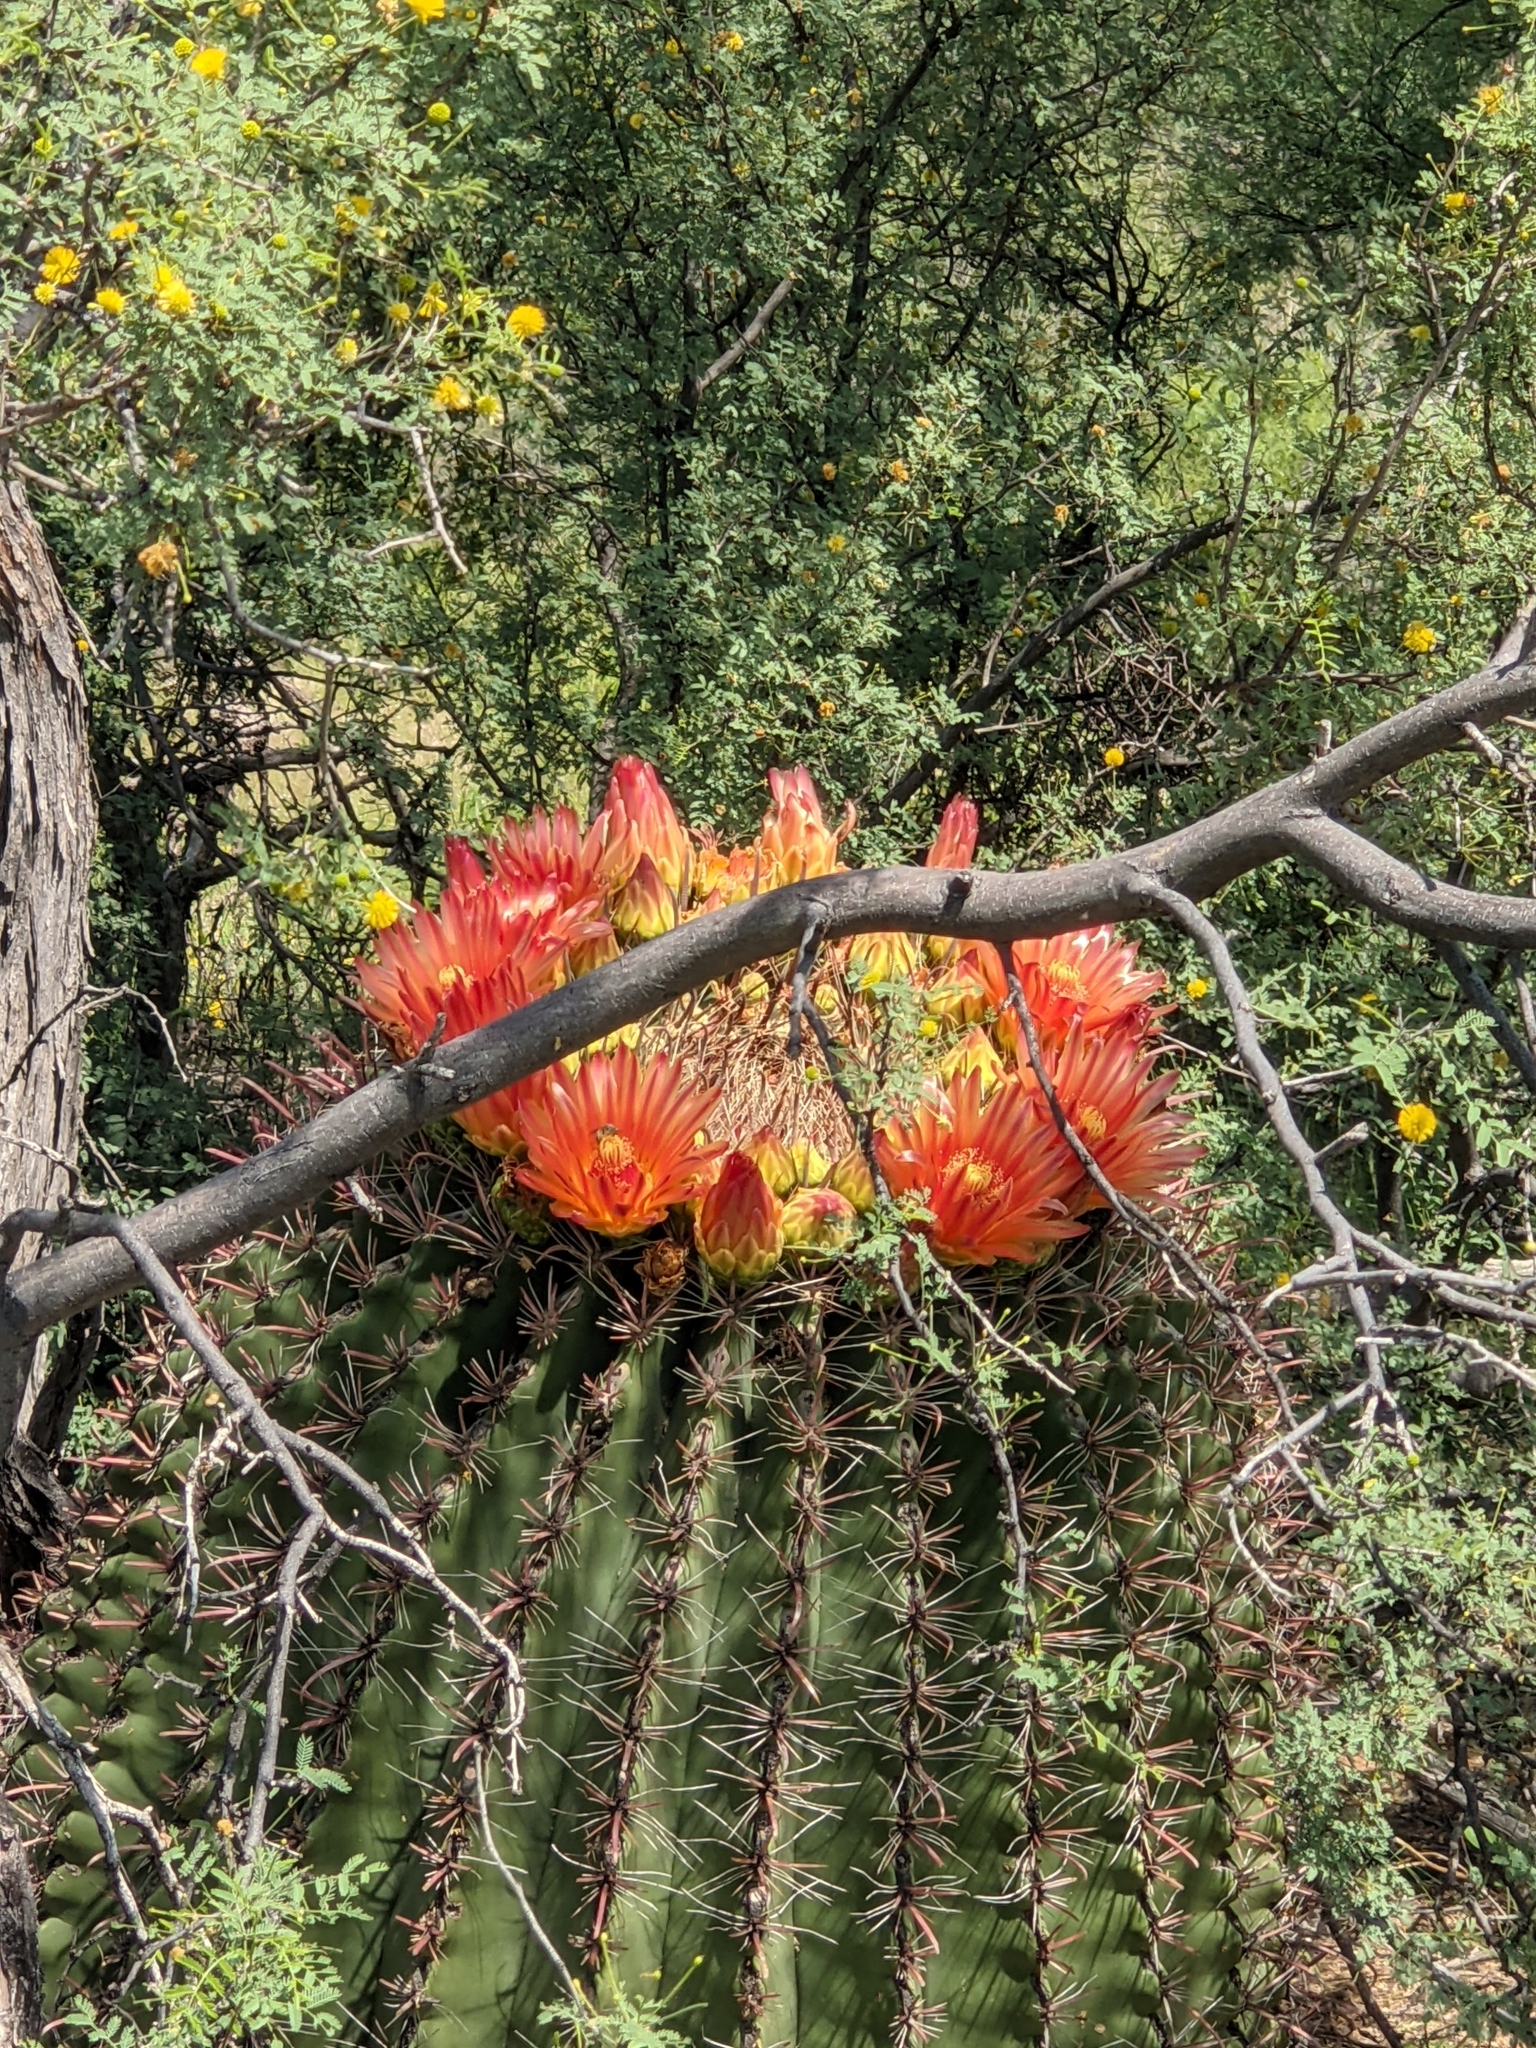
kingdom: Plantae
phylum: Tracheophyta
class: Magnoliopsida
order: Caryophyllales
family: Cactaceae
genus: Ferocactus
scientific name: Ferocactus wislizeni
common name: Candy barrel cactus
